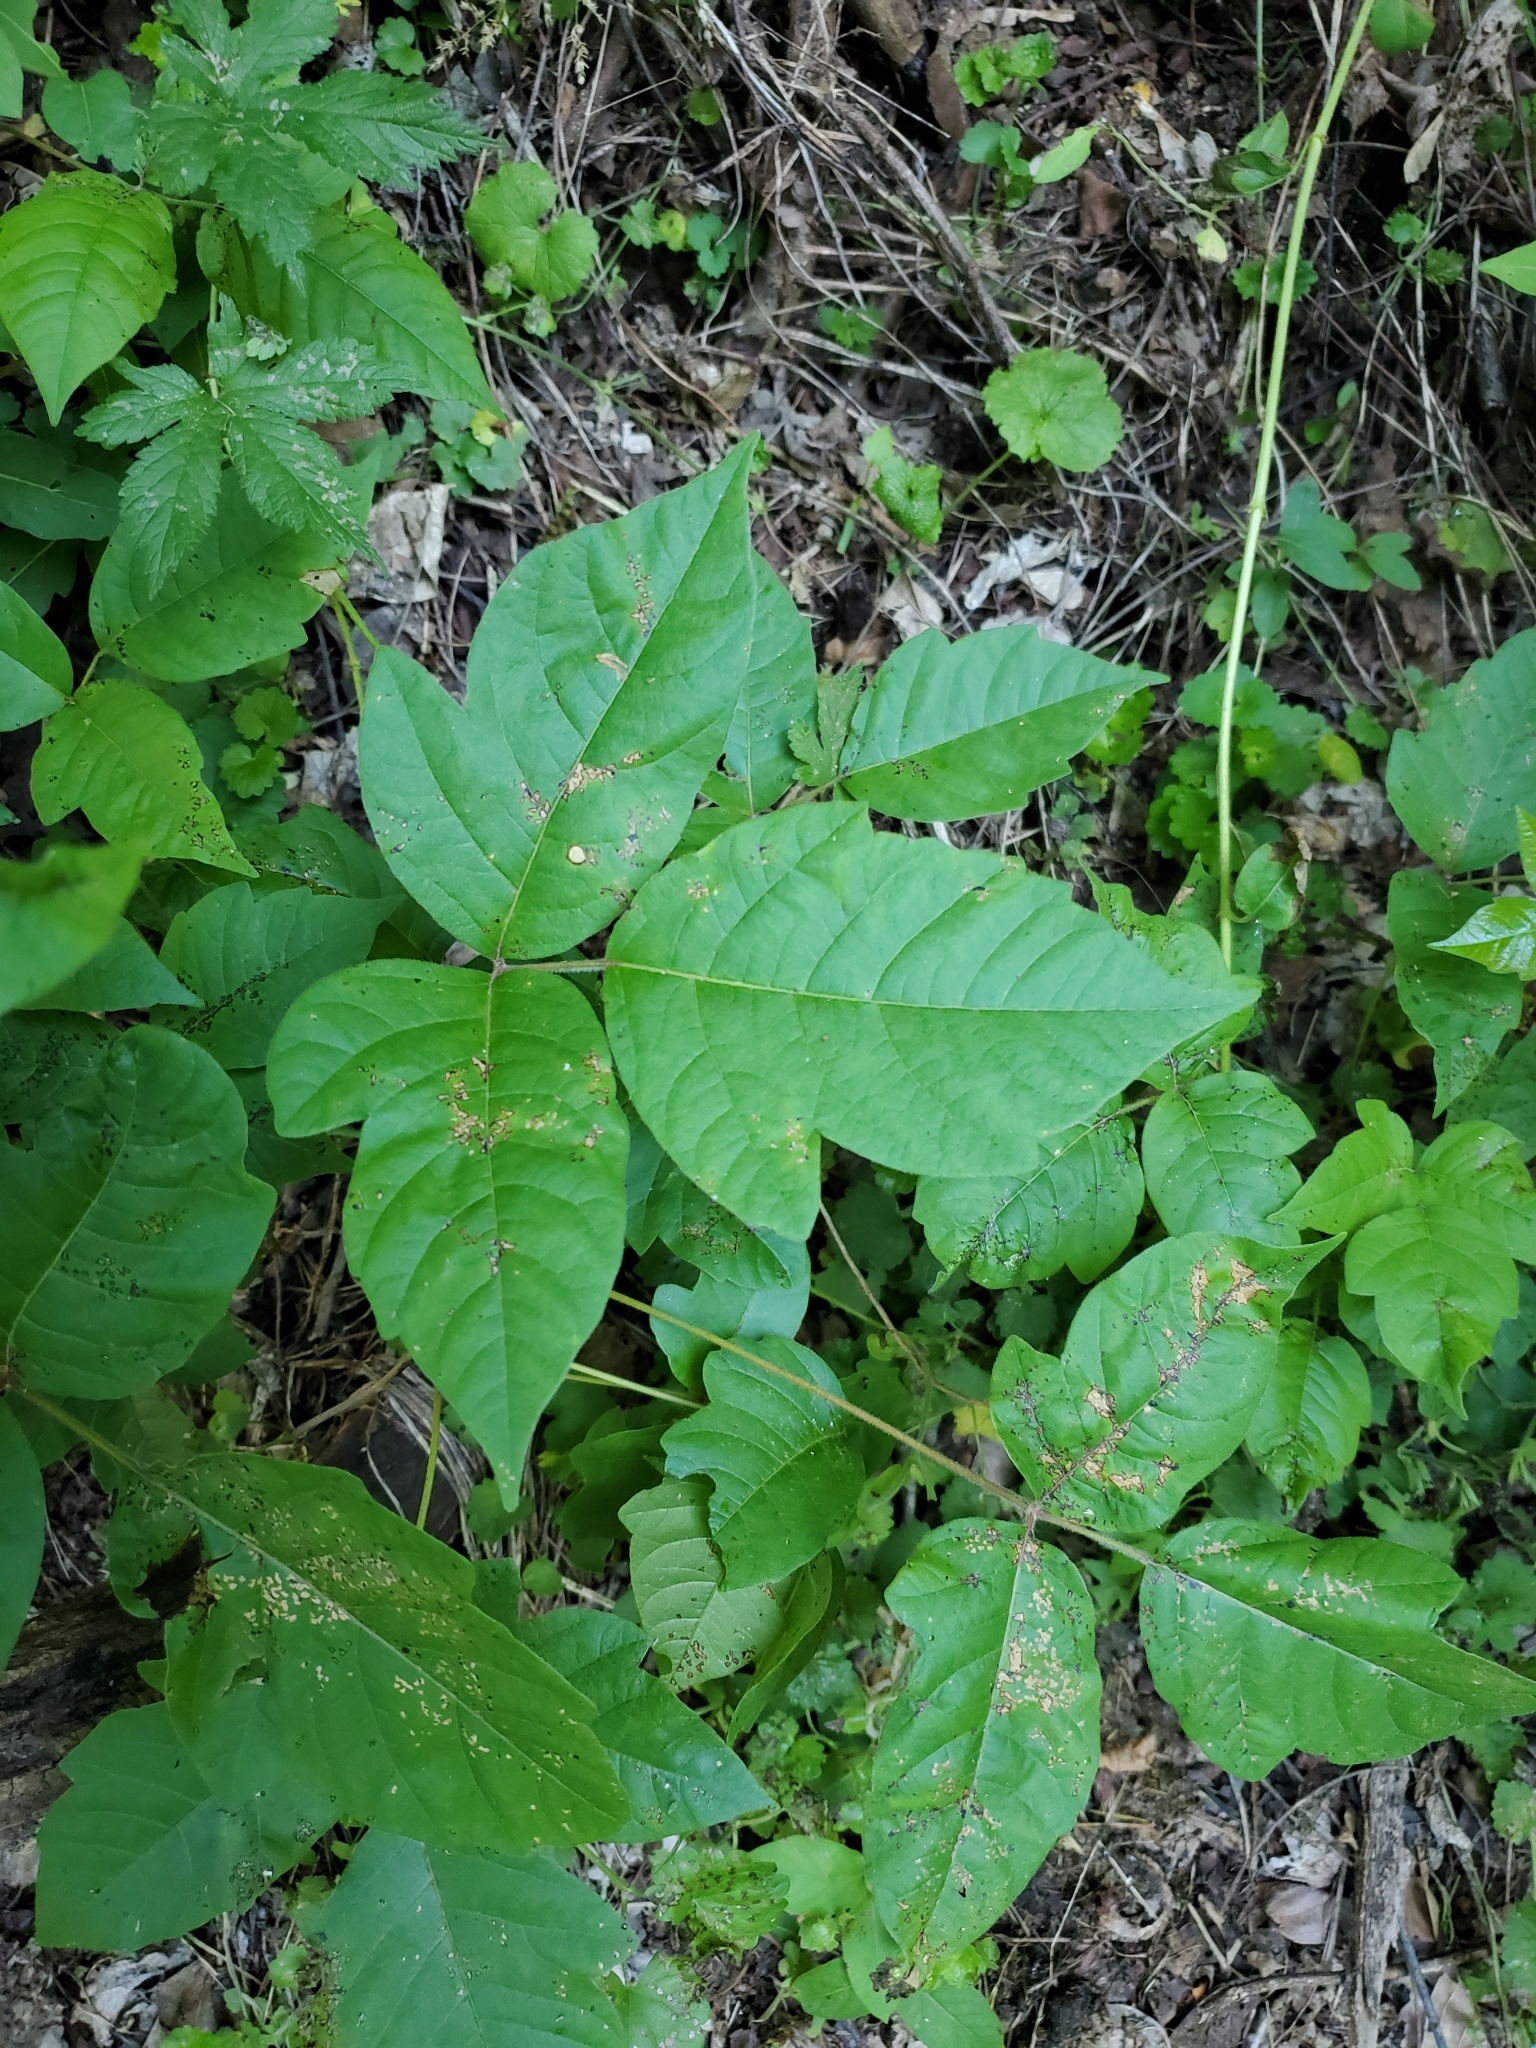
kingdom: Plantae
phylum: Tracheophyta
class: Magnoliopsida
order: Sapindales
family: Anacardiaceae
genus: Toxicodendron
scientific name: Toxicodendron radicans
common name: Poison ivy
